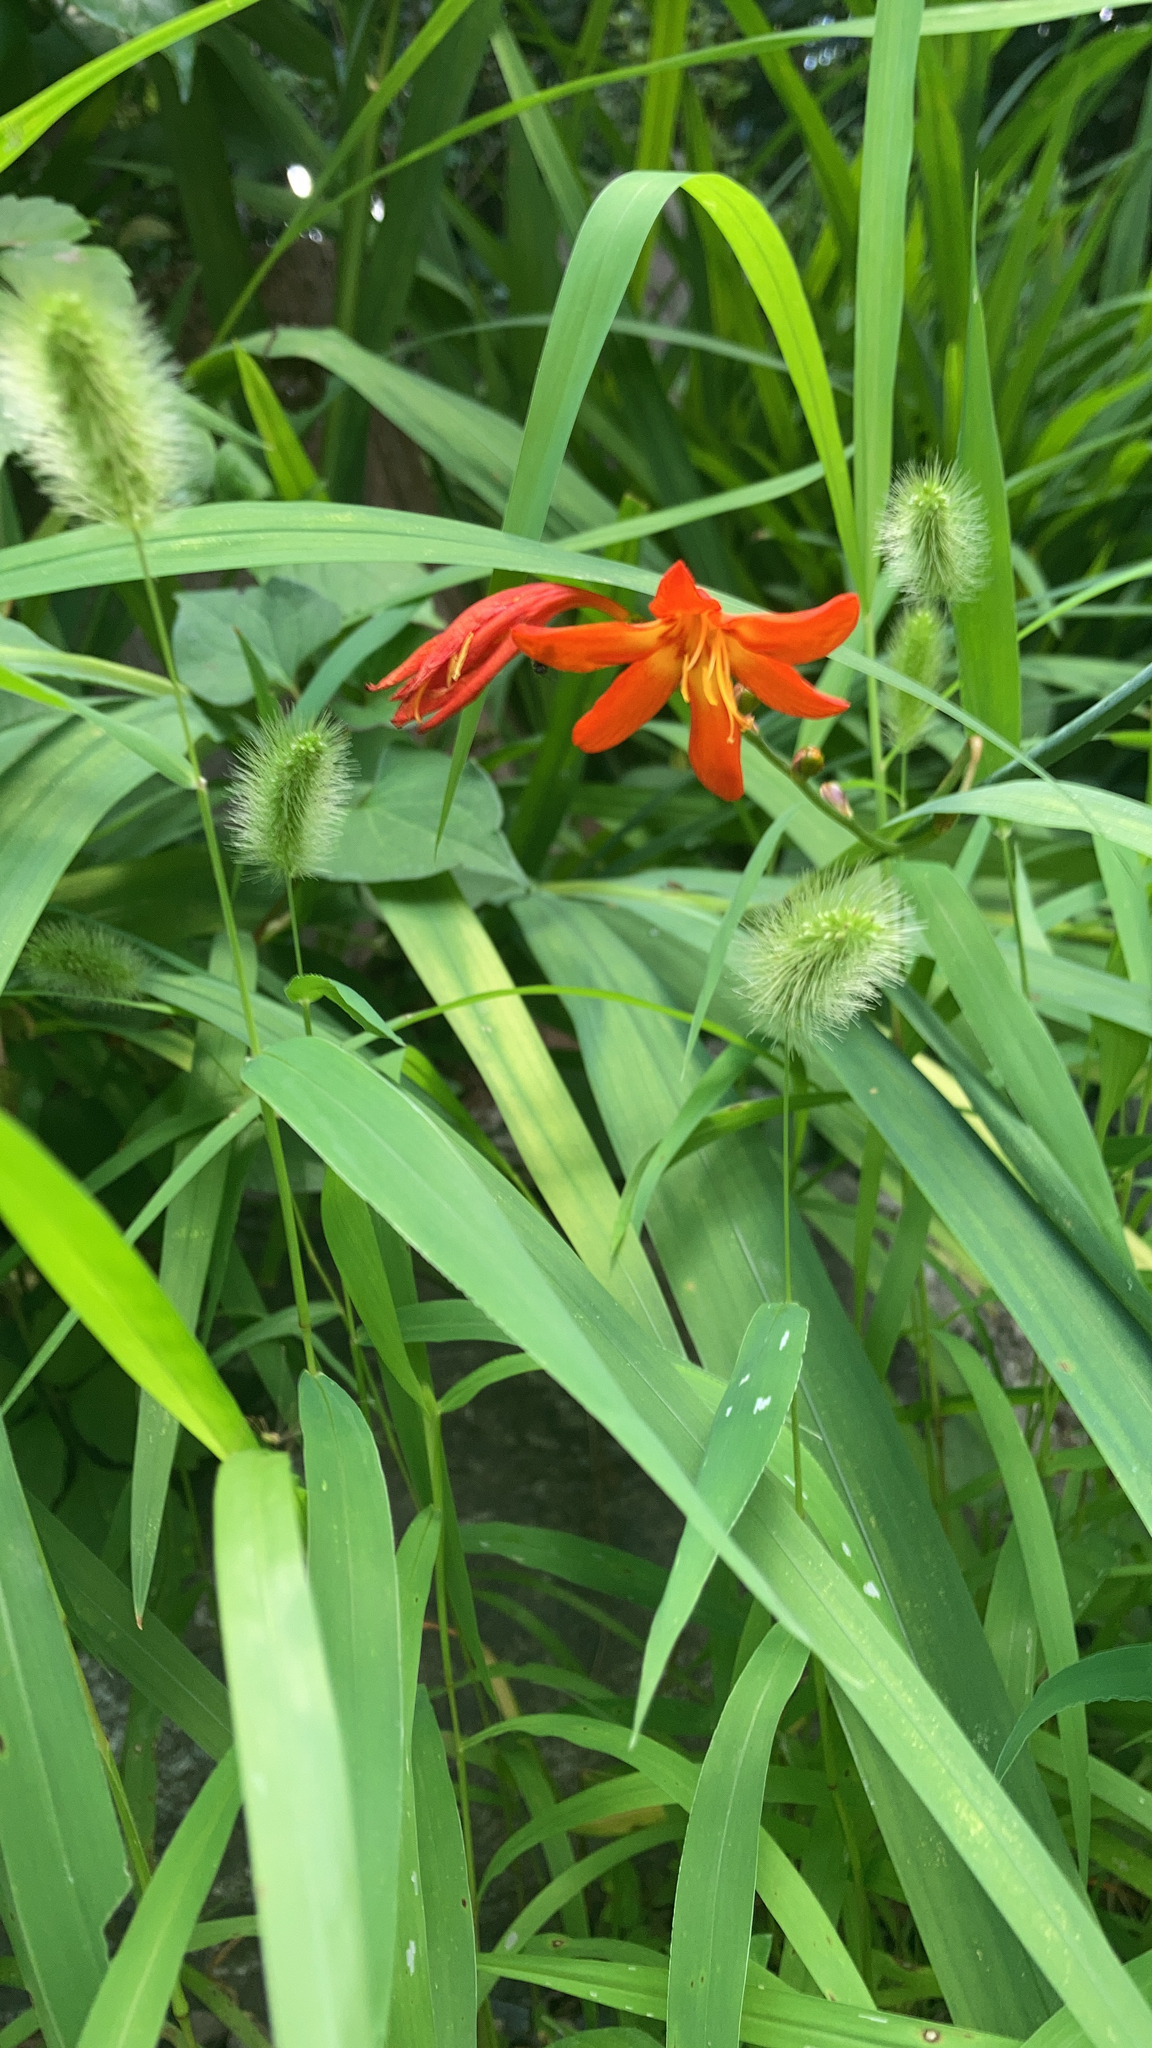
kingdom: Plantae
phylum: Tracheophyta
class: Liliopsida
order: Asparagales
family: Iridaceae
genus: Crocosmia
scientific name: Crocosmia crocosmiiflora
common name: Montbretia
